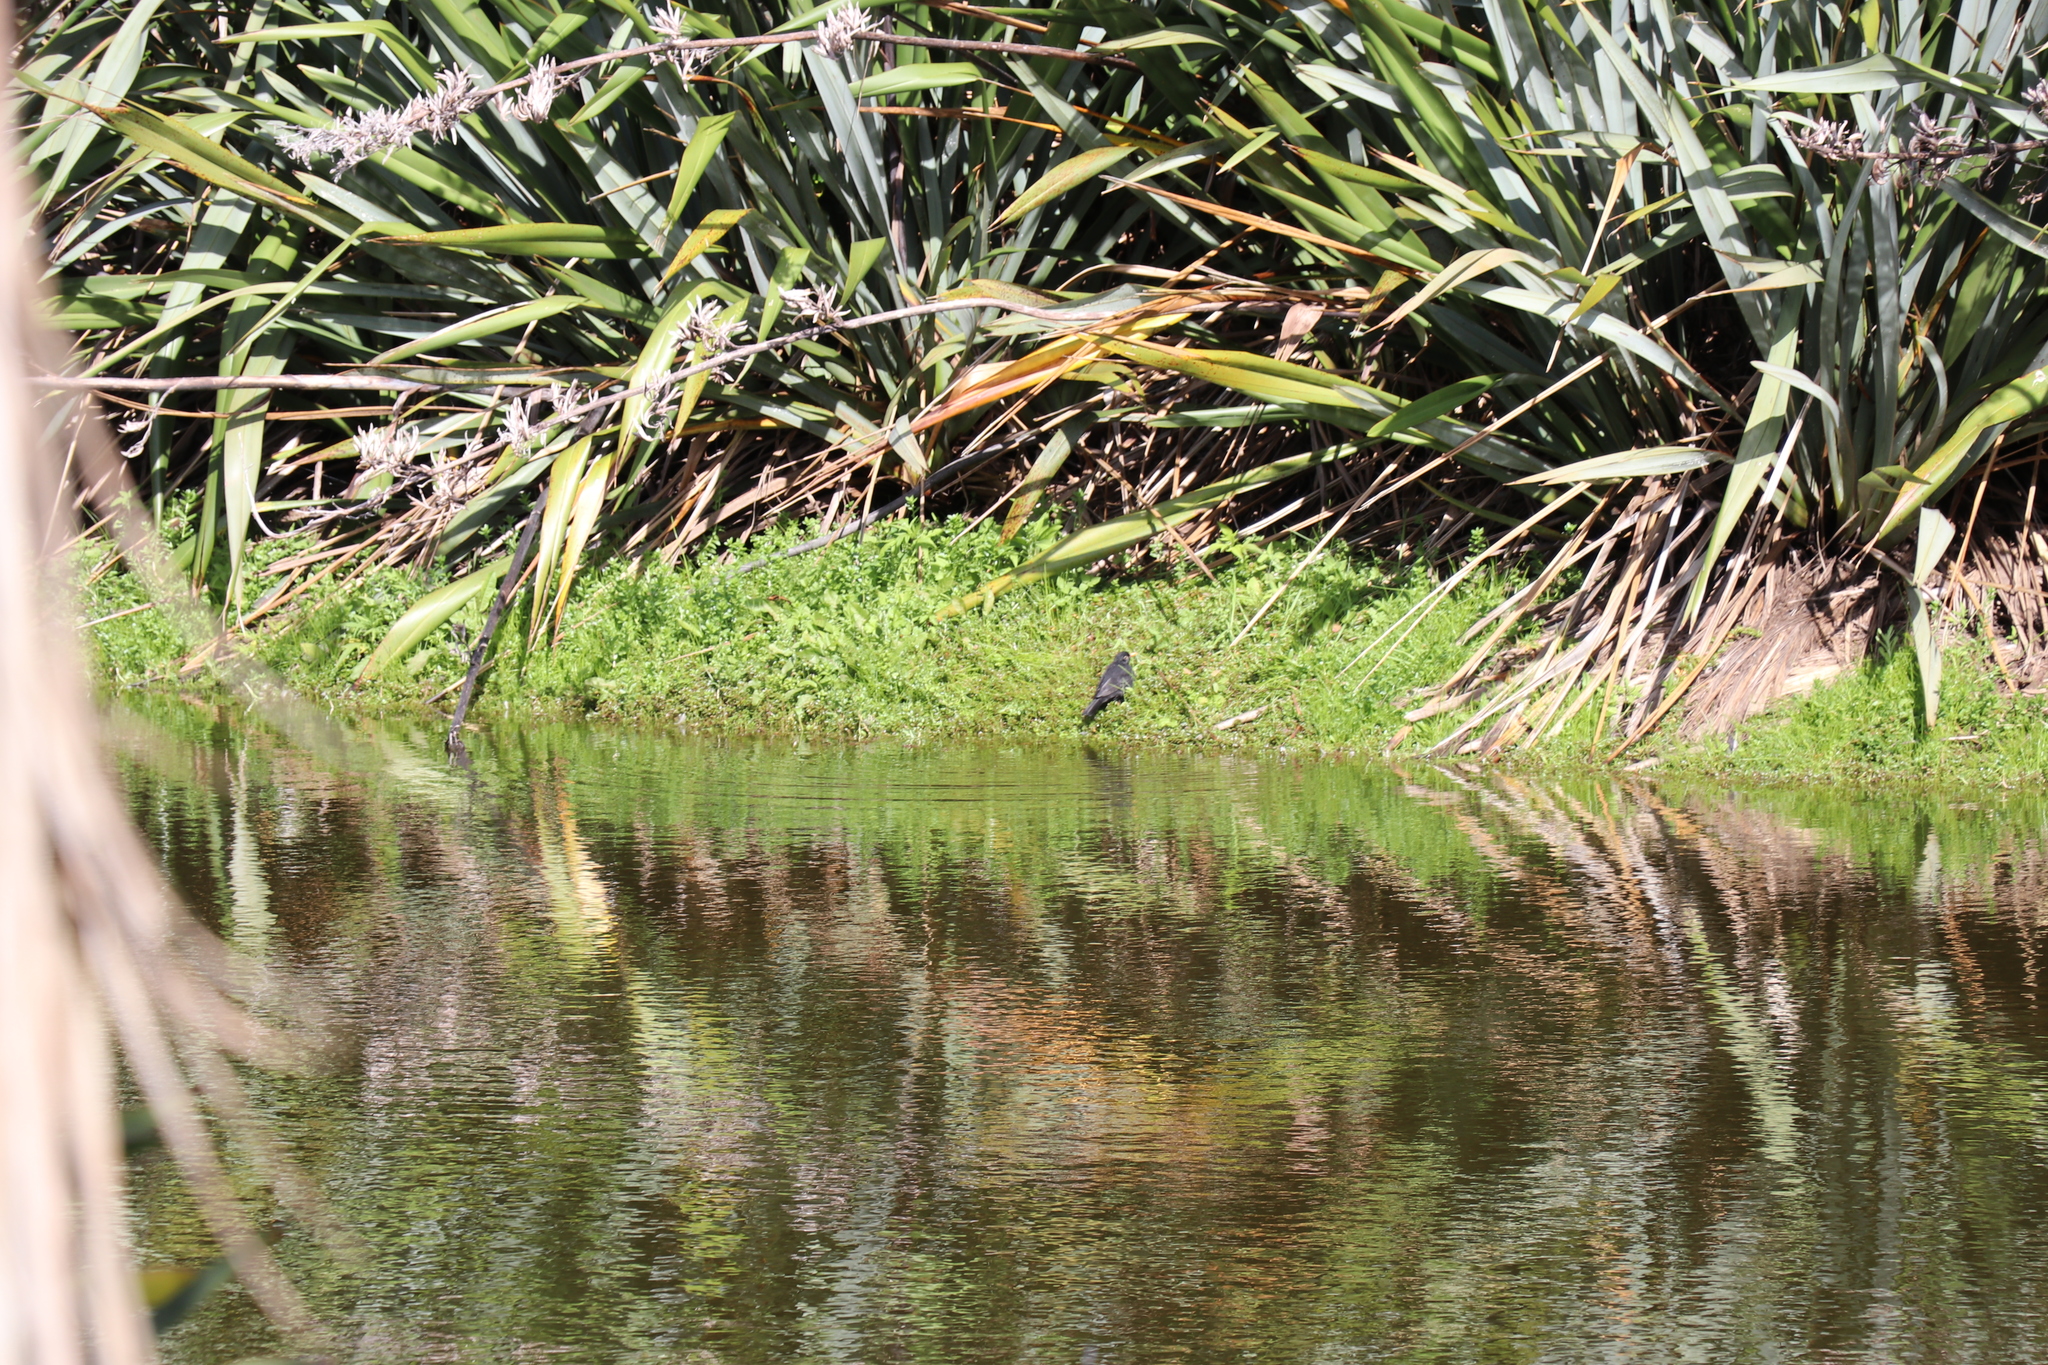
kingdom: Animalia
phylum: Chordata
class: Aves
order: Passeriformes
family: Turdidae
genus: Turdus
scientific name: Turdus merula
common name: Common blackbird
